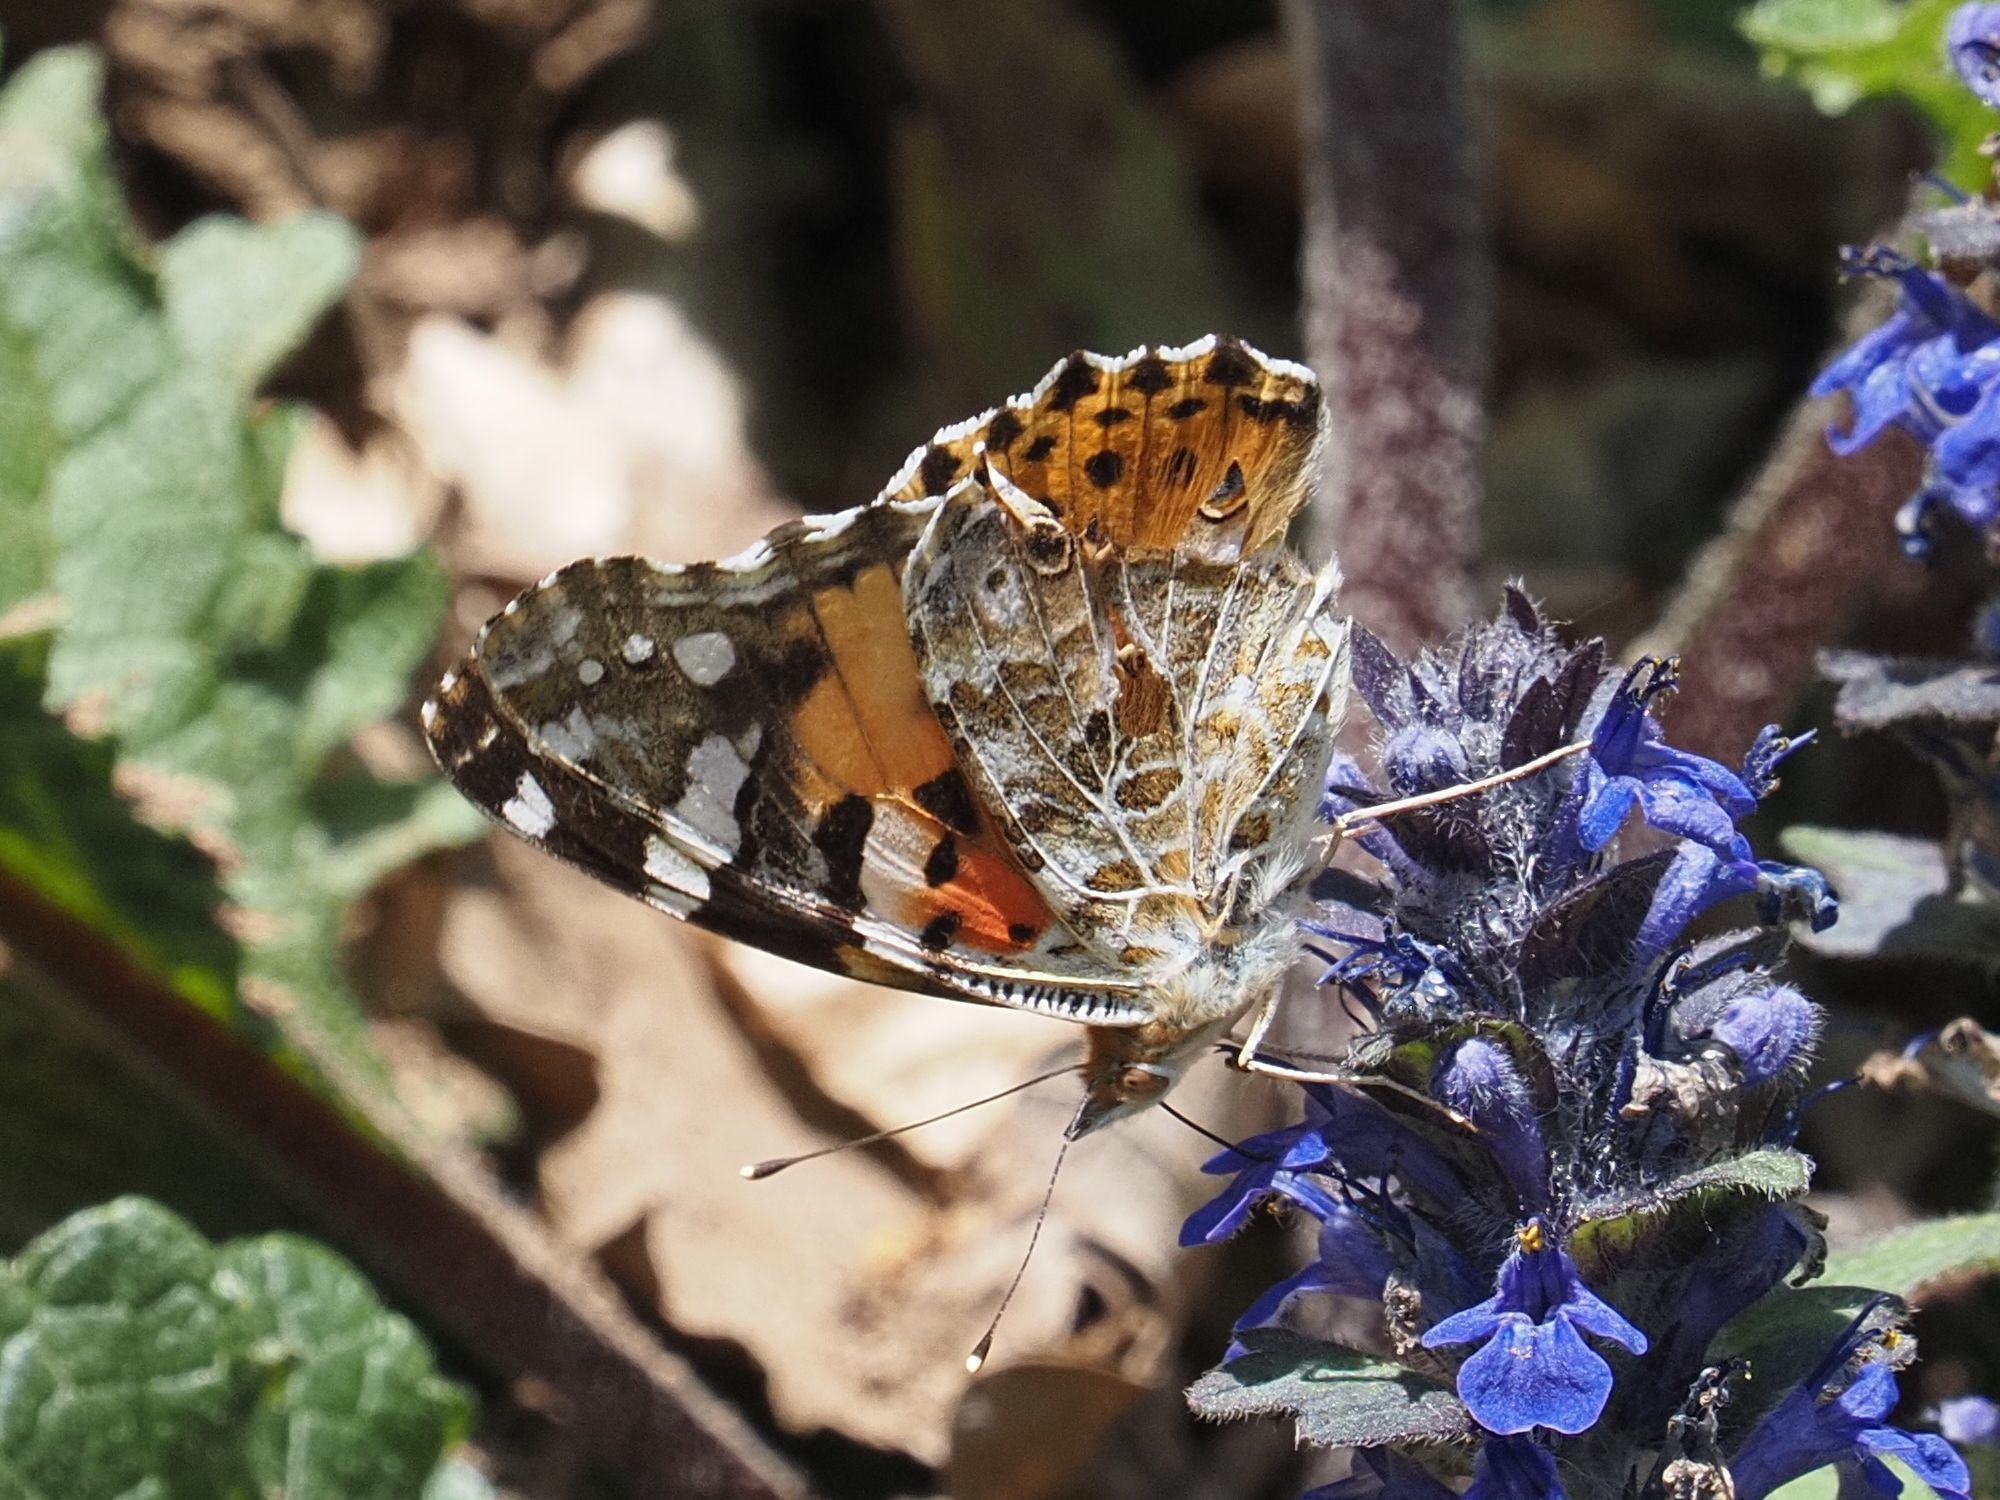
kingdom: Animalia
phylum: Arthropoda
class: Insecta
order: Lepidoptera
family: Nymphalidae
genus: Vanessa
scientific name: Vanessa cardui
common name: Painted lady
